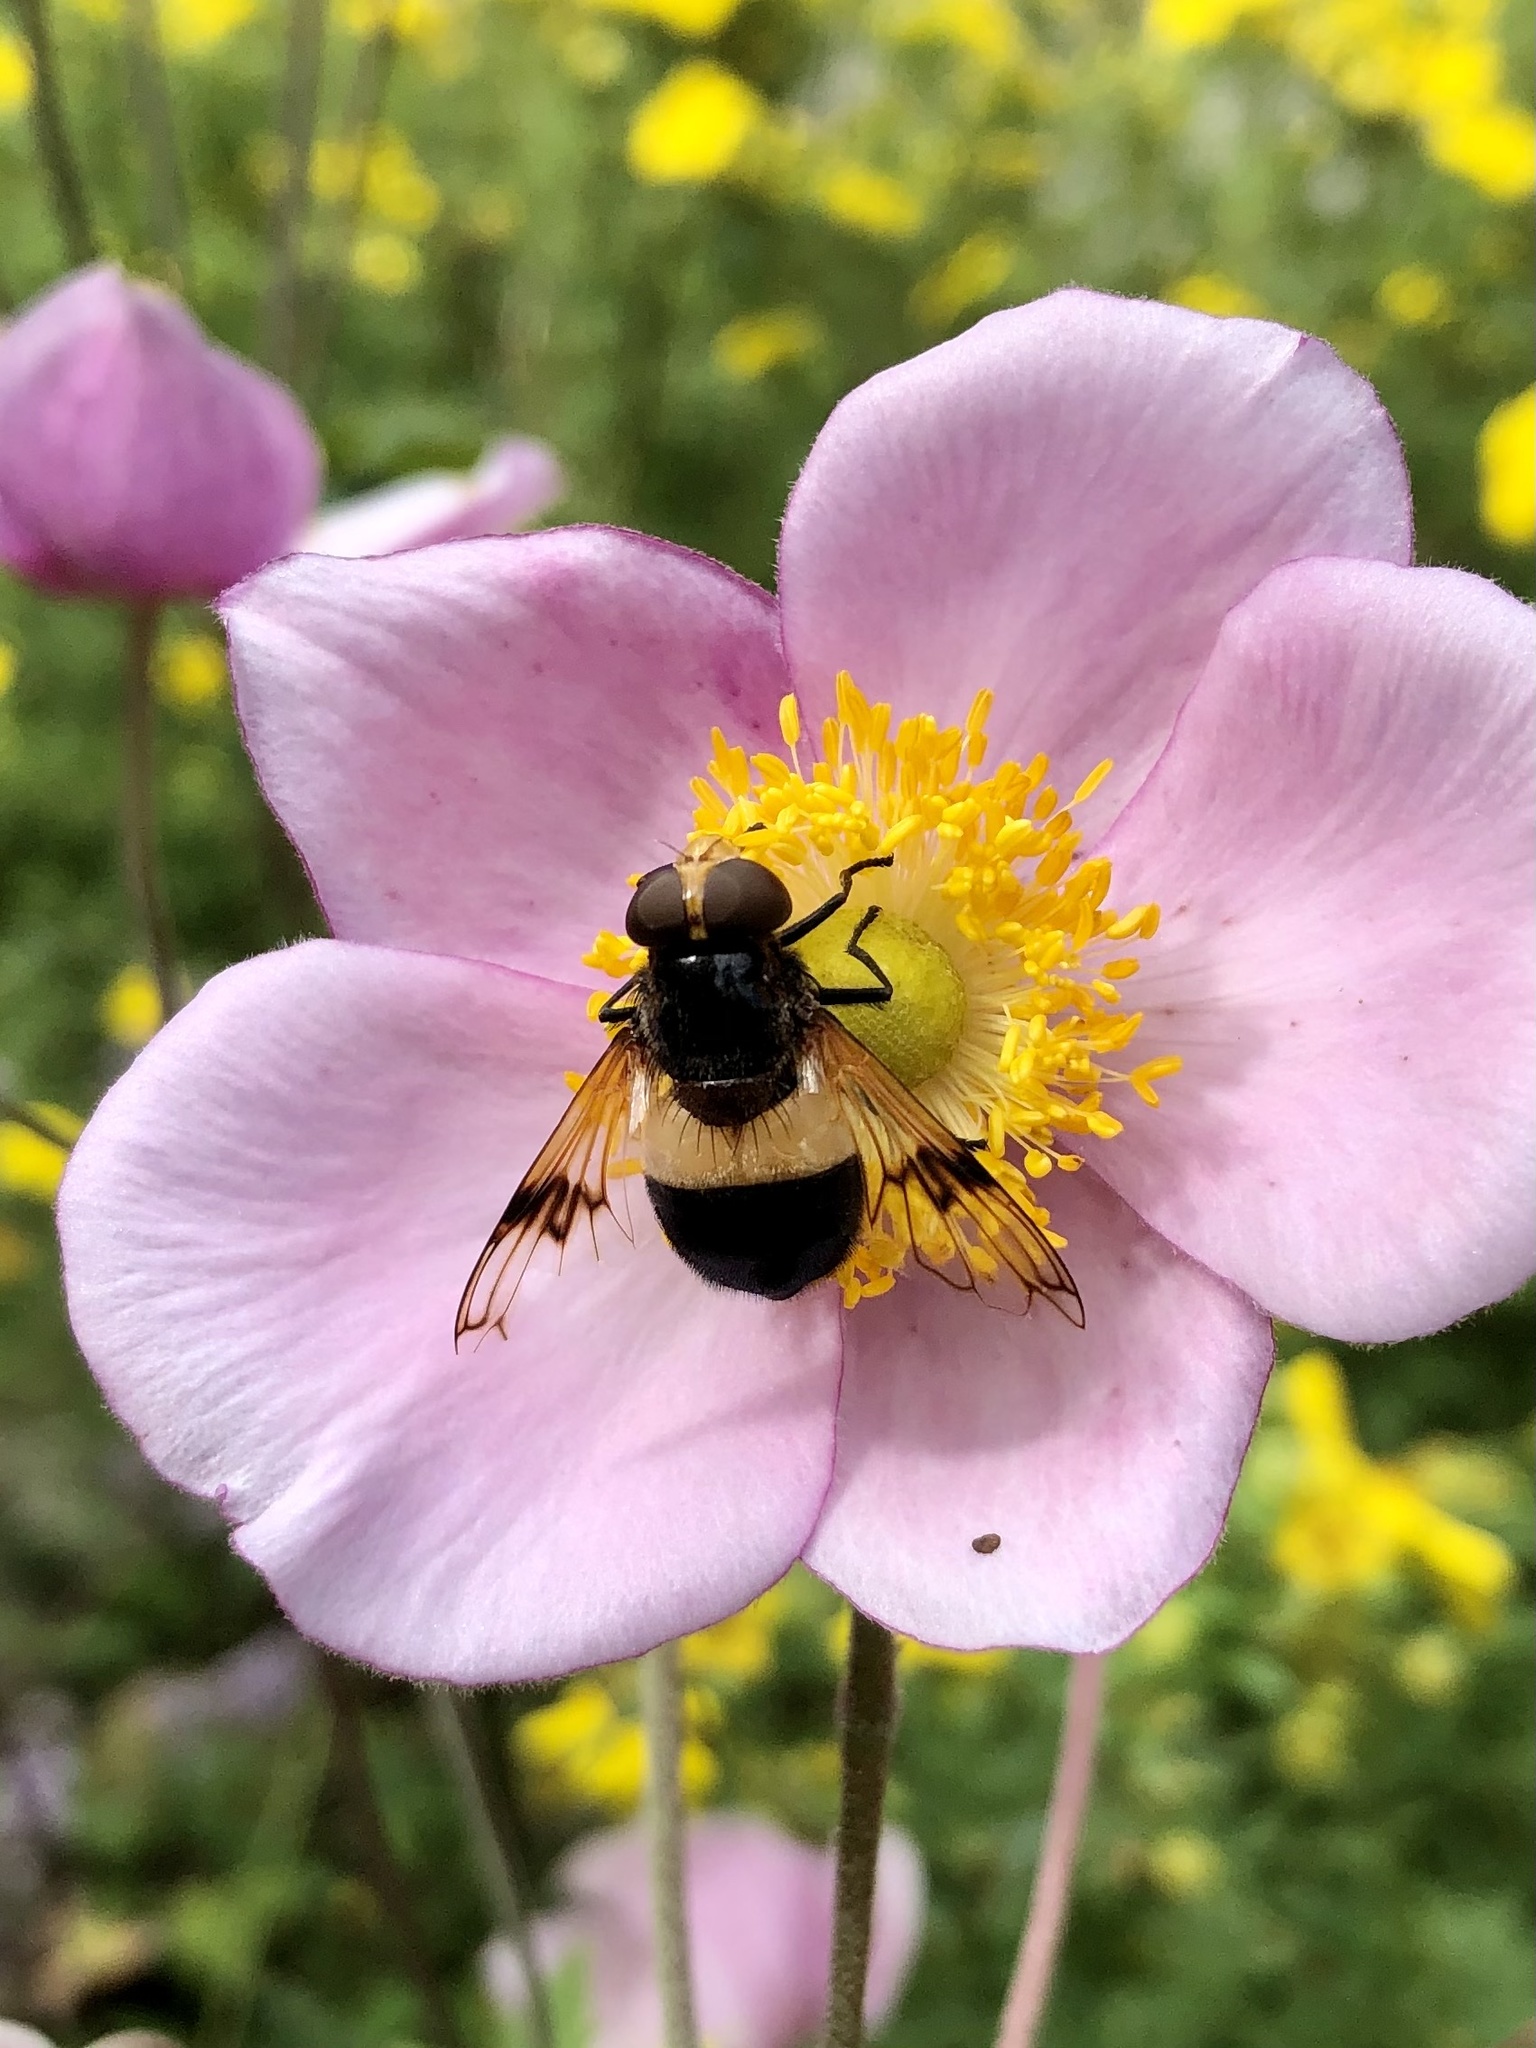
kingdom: Animalia
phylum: Arthropoda
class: Insecta
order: Diptera
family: Syrphidae
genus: Volucella
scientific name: Volucella pellucens
